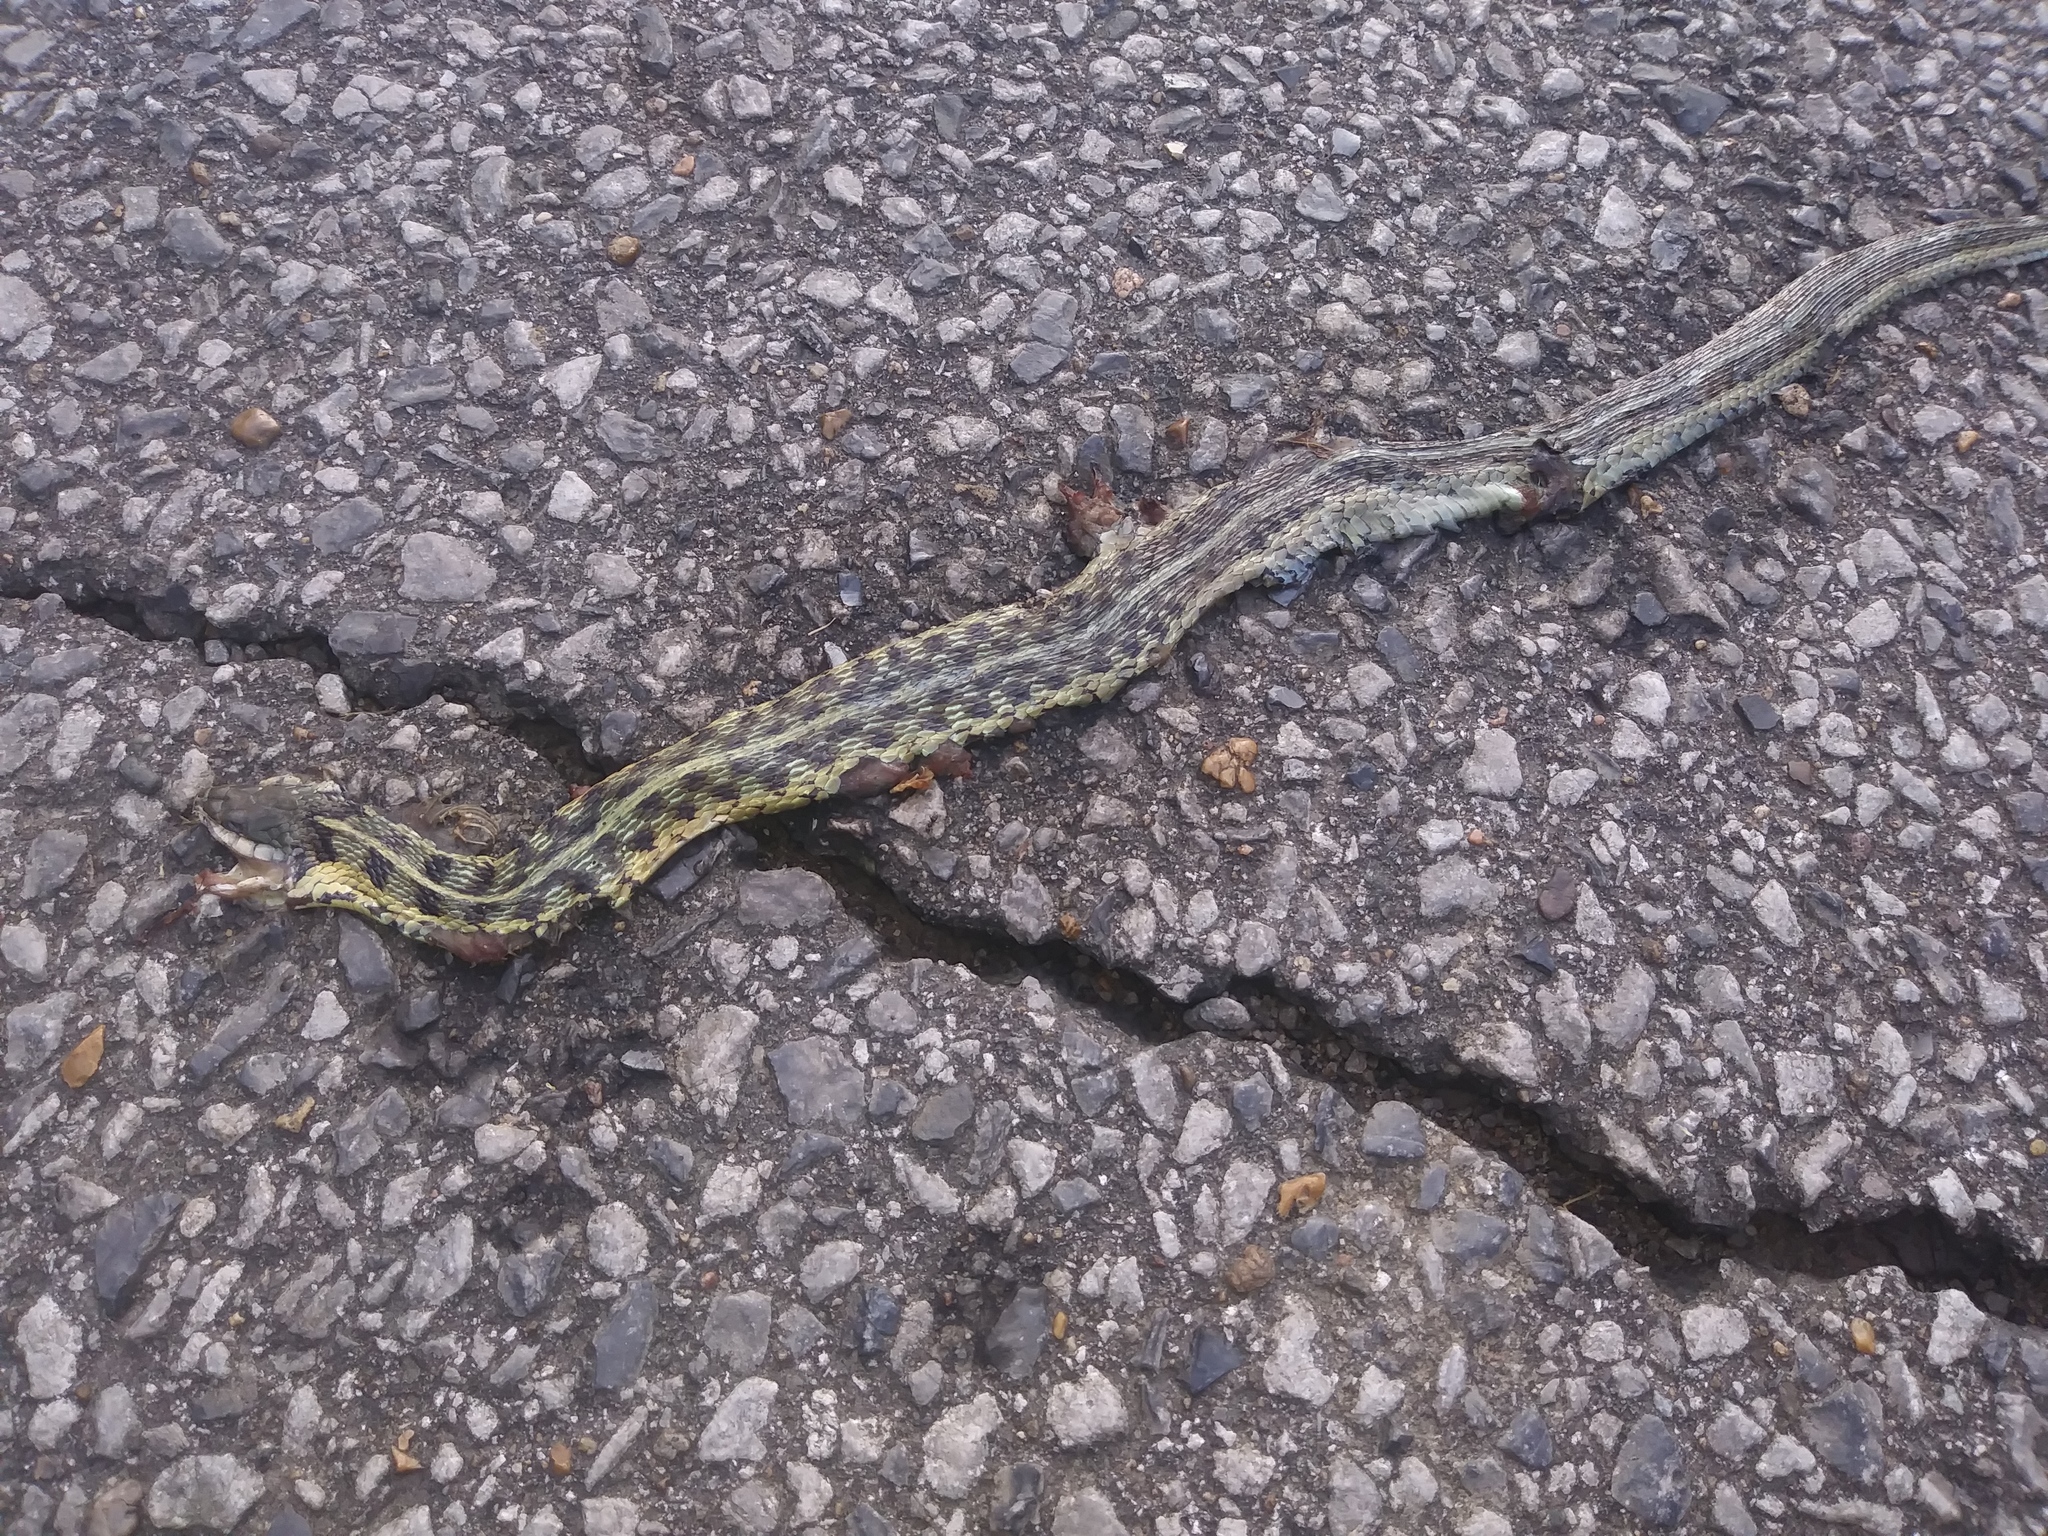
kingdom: Animalia
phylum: Chordata
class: Squamata
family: Colubridae
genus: Thamnophis
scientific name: Thamnophis sirtalis
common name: Common garter snake
